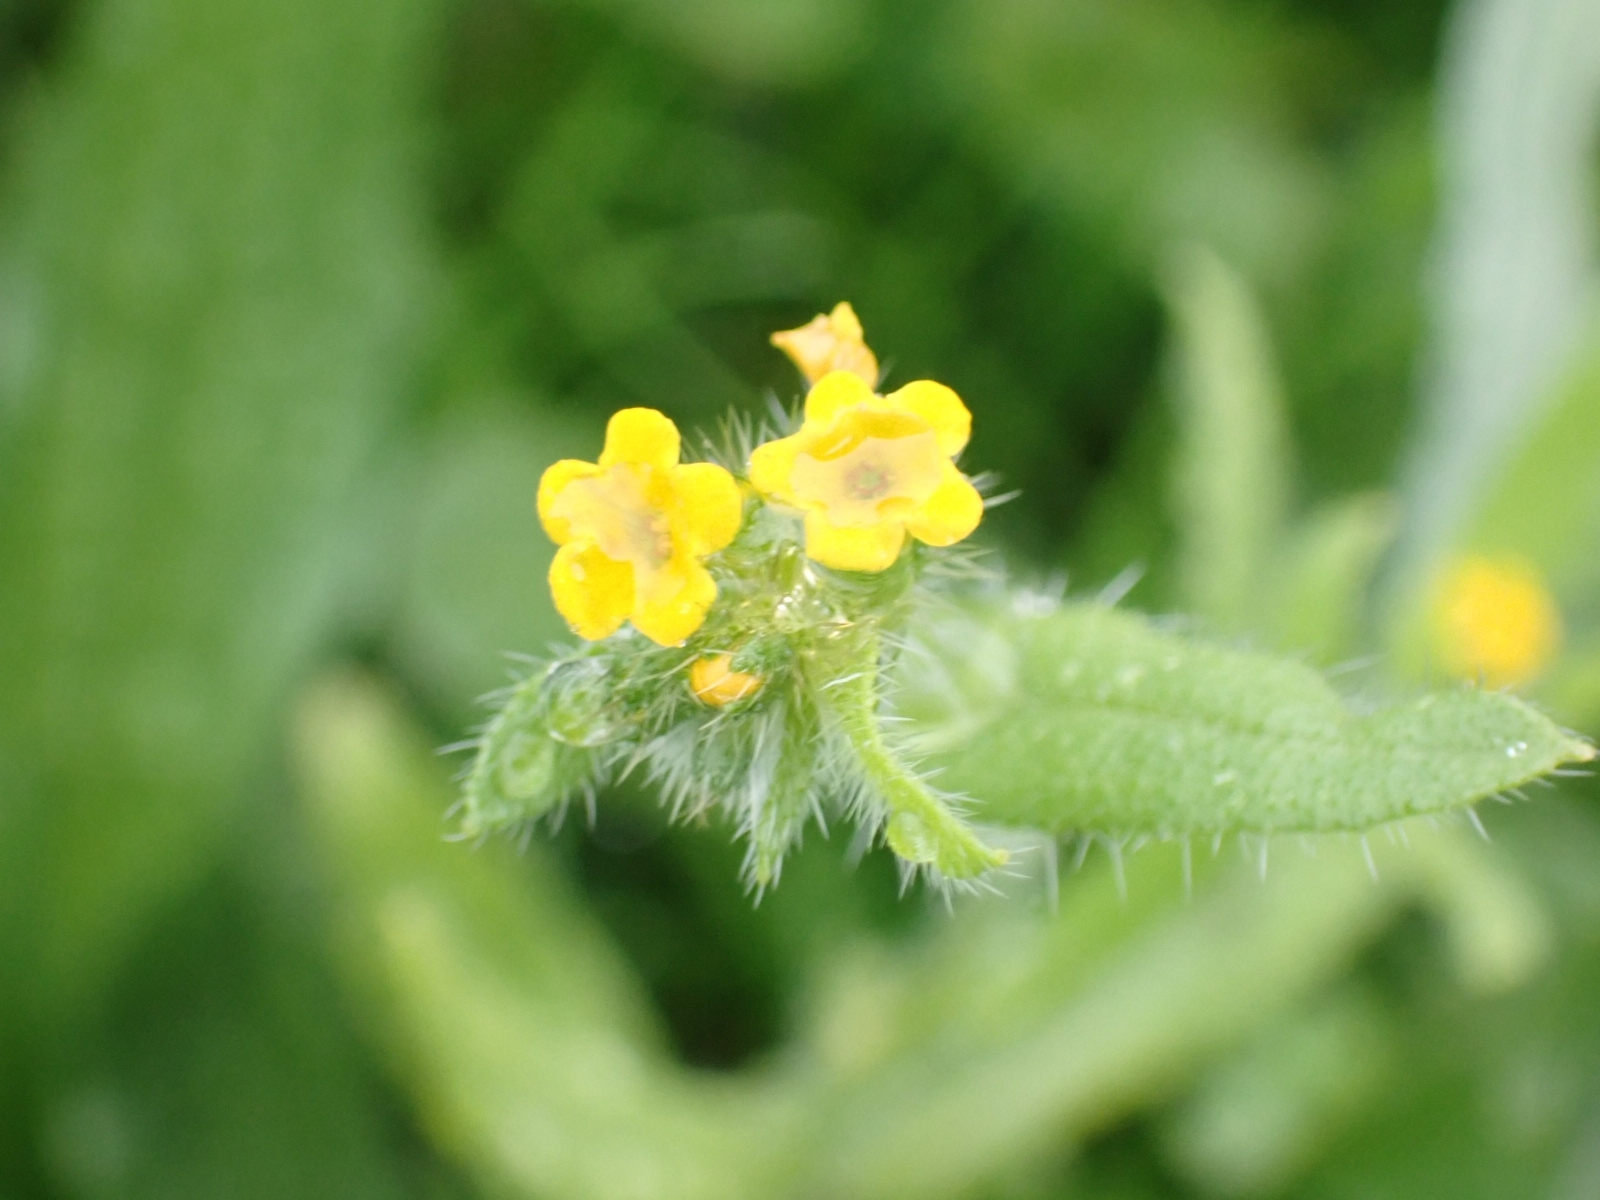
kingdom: Plantae
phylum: Tracheophyta
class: Magnoliopsida
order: Boraginales
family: Boraginaceae
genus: Amsinckia
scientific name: Amsinckia menziesii
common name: Menzies' fiddleneck
